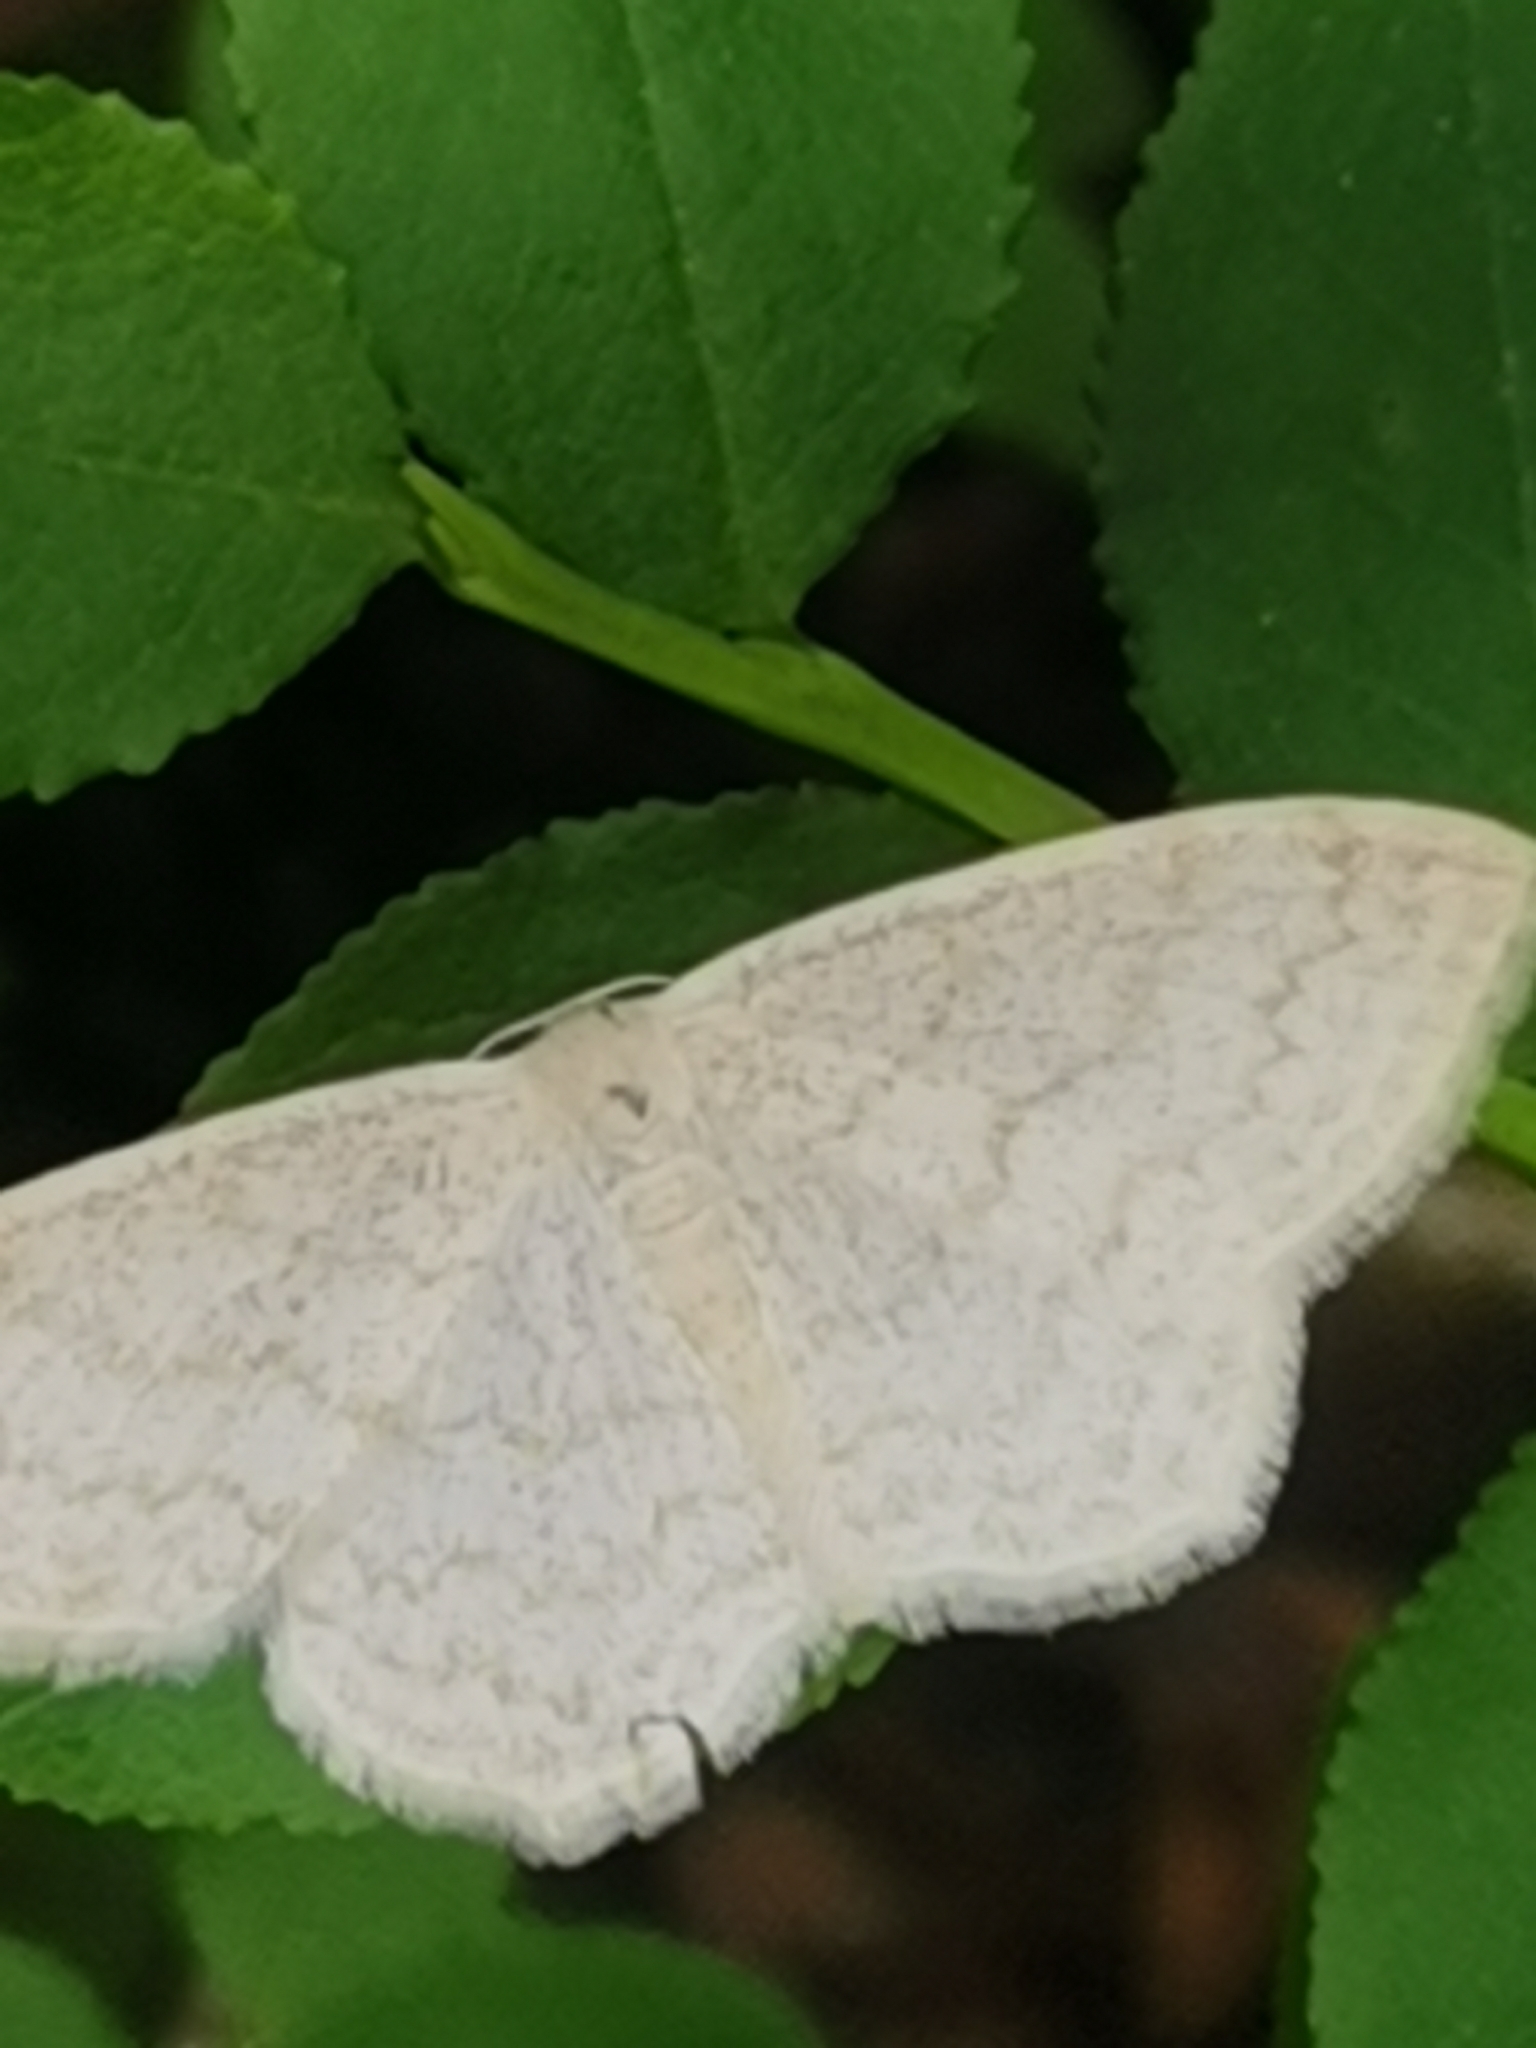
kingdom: Animalia
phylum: Arthropoda
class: Insecta
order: Lepidoptera
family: Geometridae
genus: Scopula
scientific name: Scopula floslactata
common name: Cream wave
